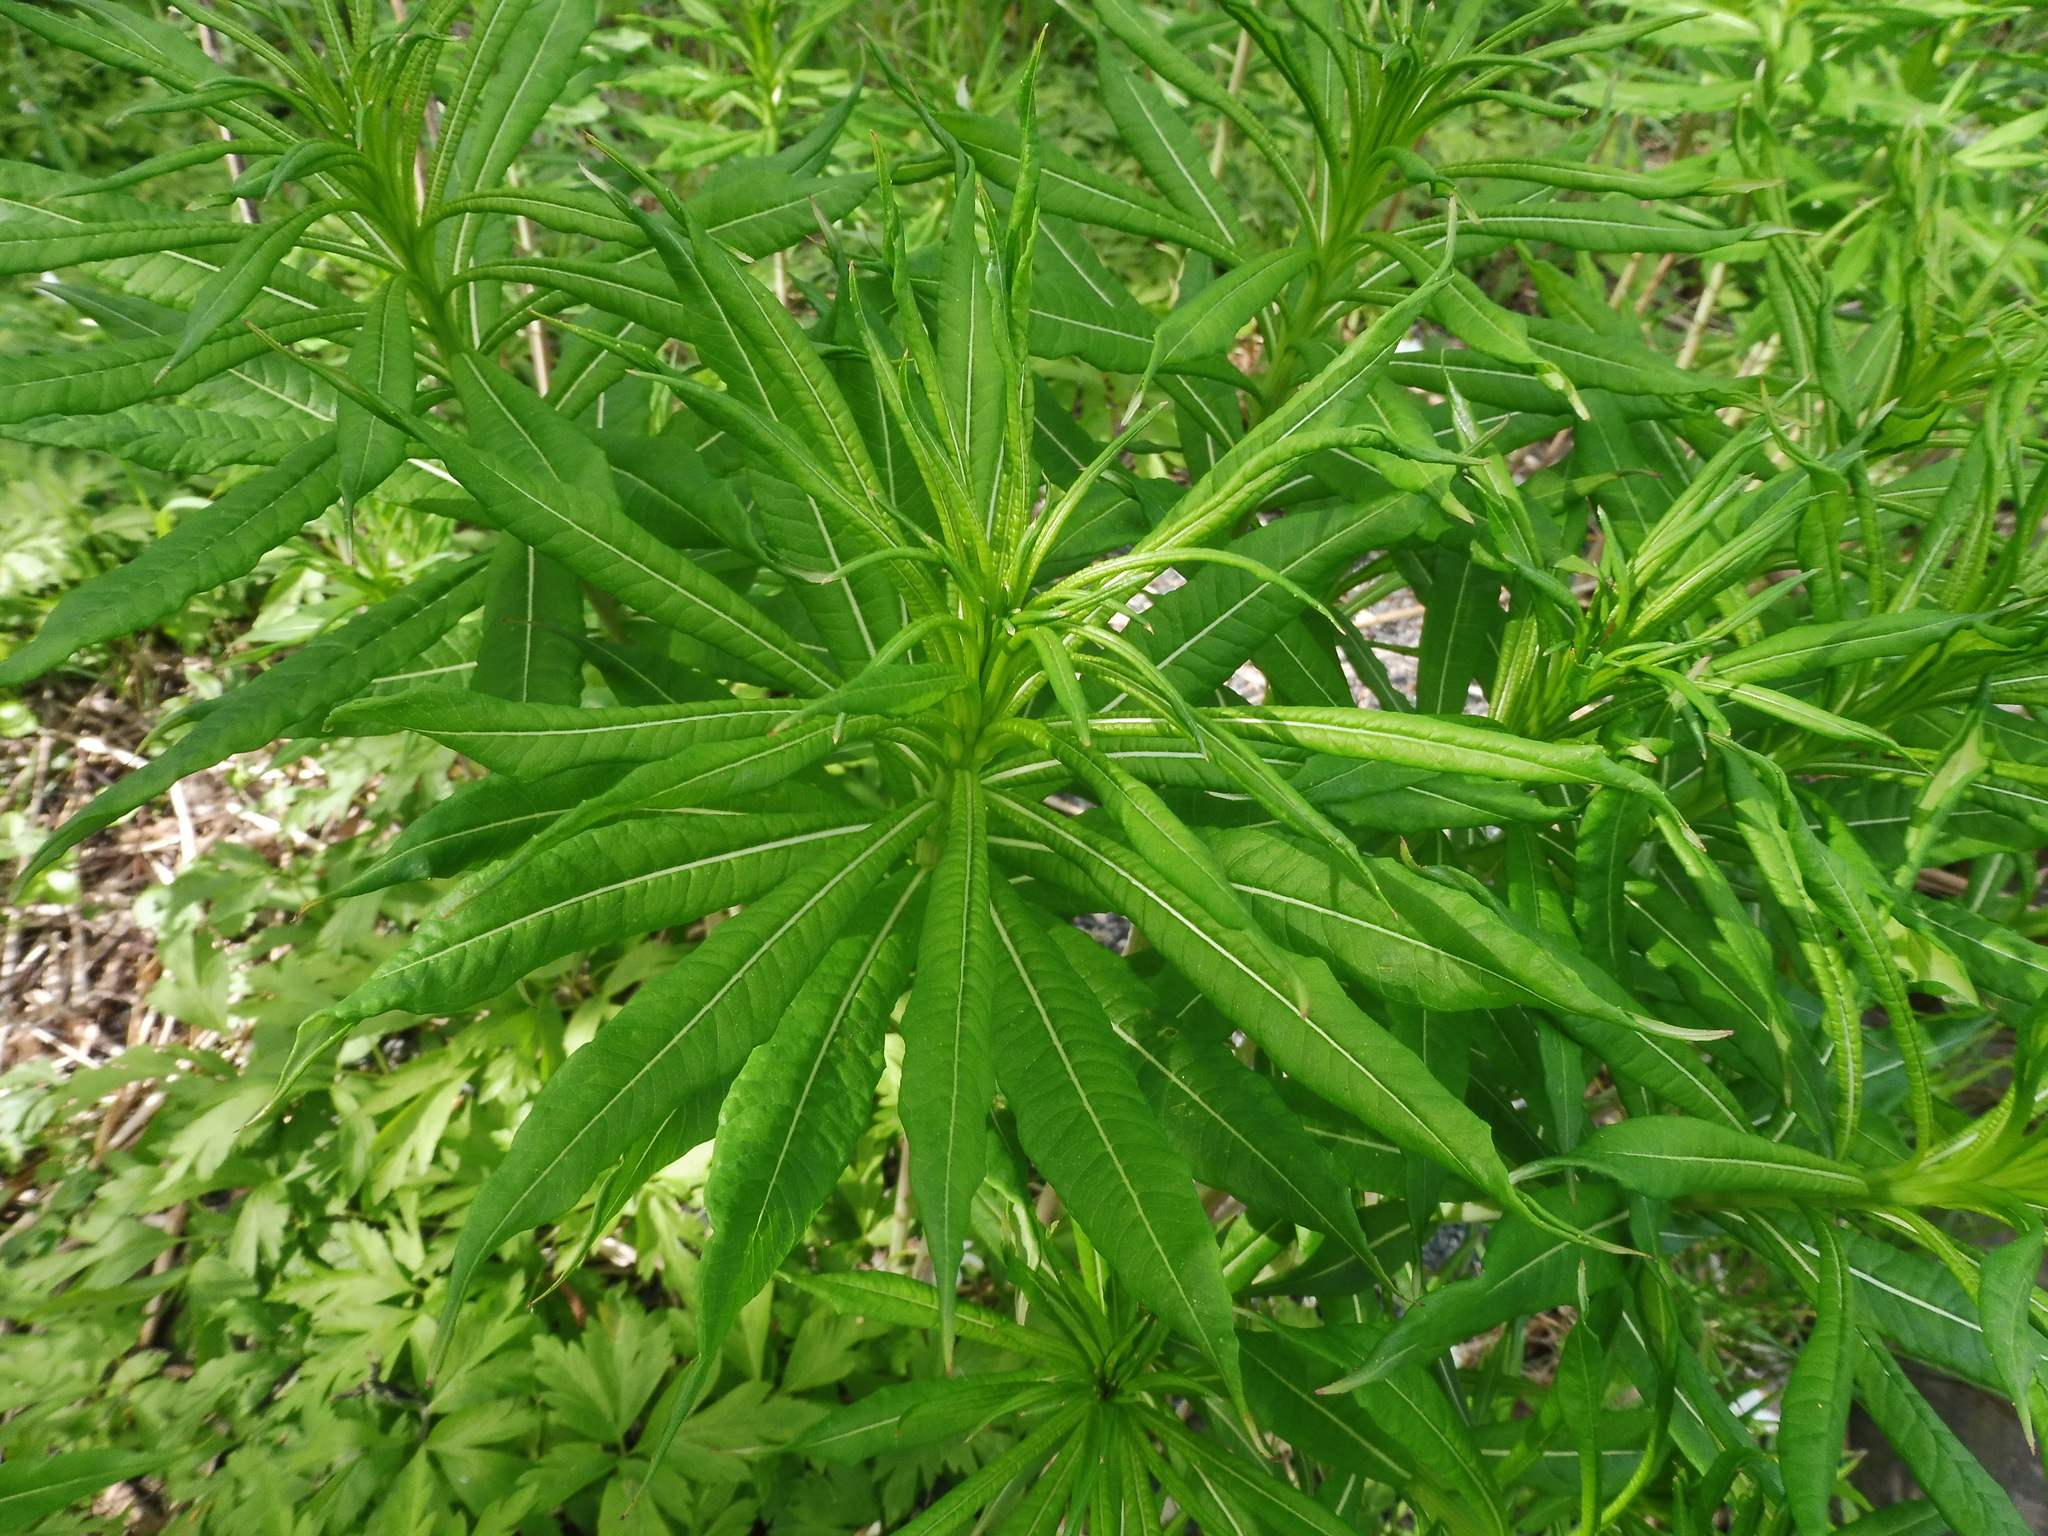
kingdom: Plantae
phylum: Tracheophyta
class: Magnoliopsida
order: Myrtales
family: Onagraceae
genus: Chamaenerion
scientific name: Chamaenerion angustifolium
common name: Fireweed
